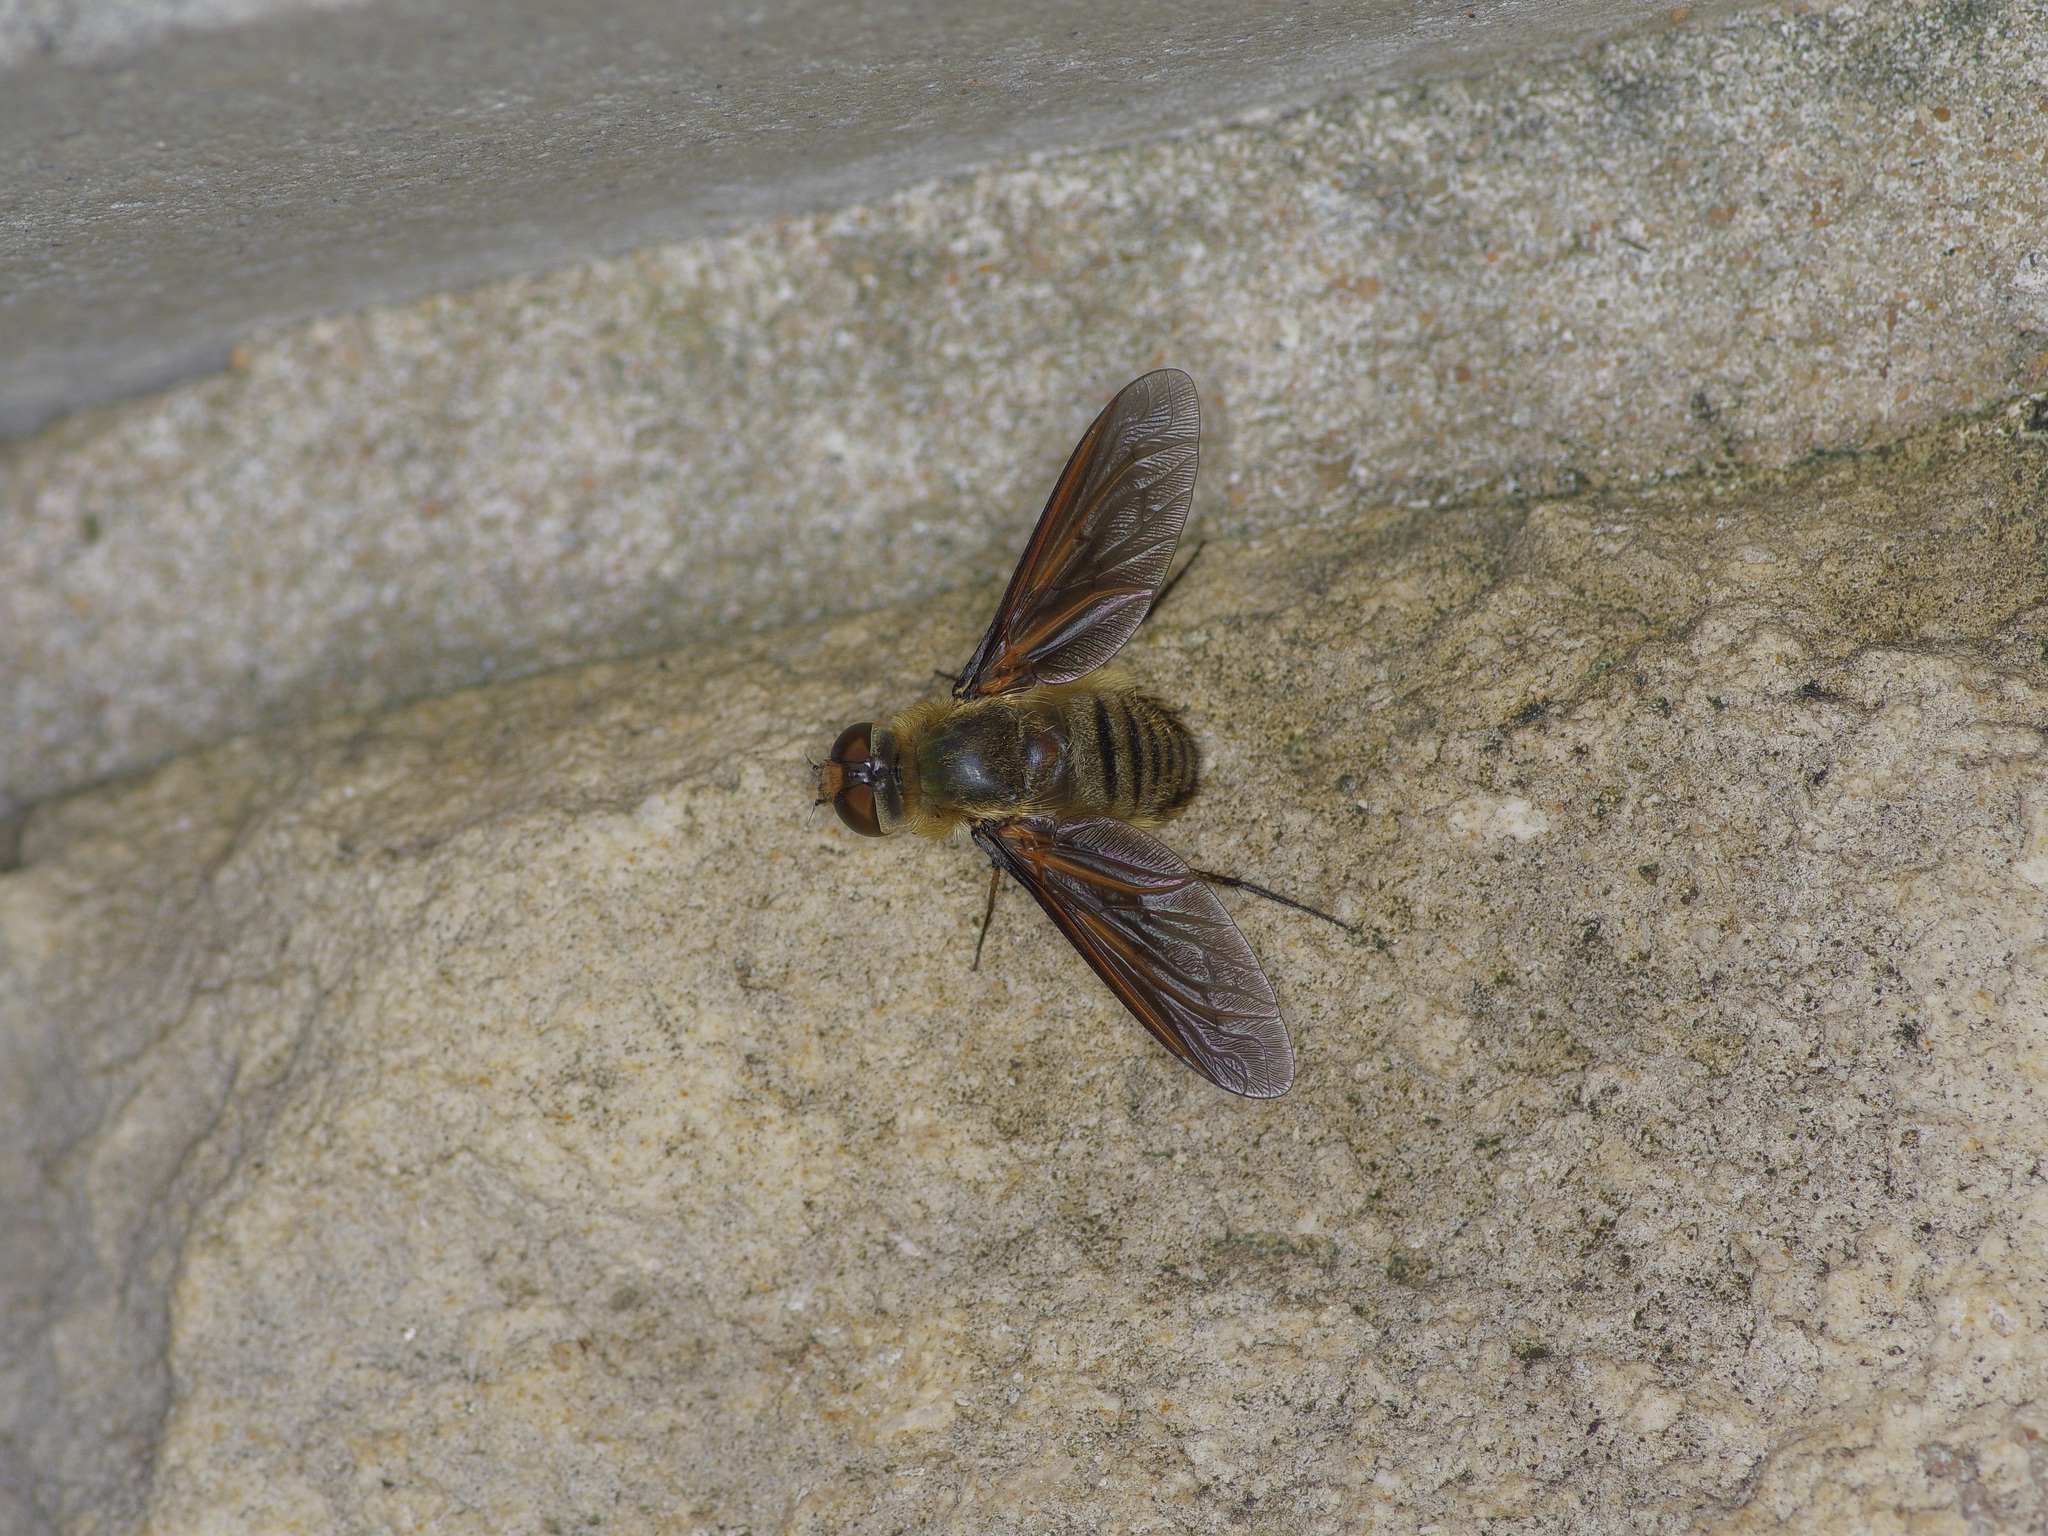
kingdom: Animalia
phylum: Arthropoda
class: Insecta
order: Diptera
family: Bombyliidae
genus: Poecilanthrax
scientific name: Poecilanthrax lucifer
